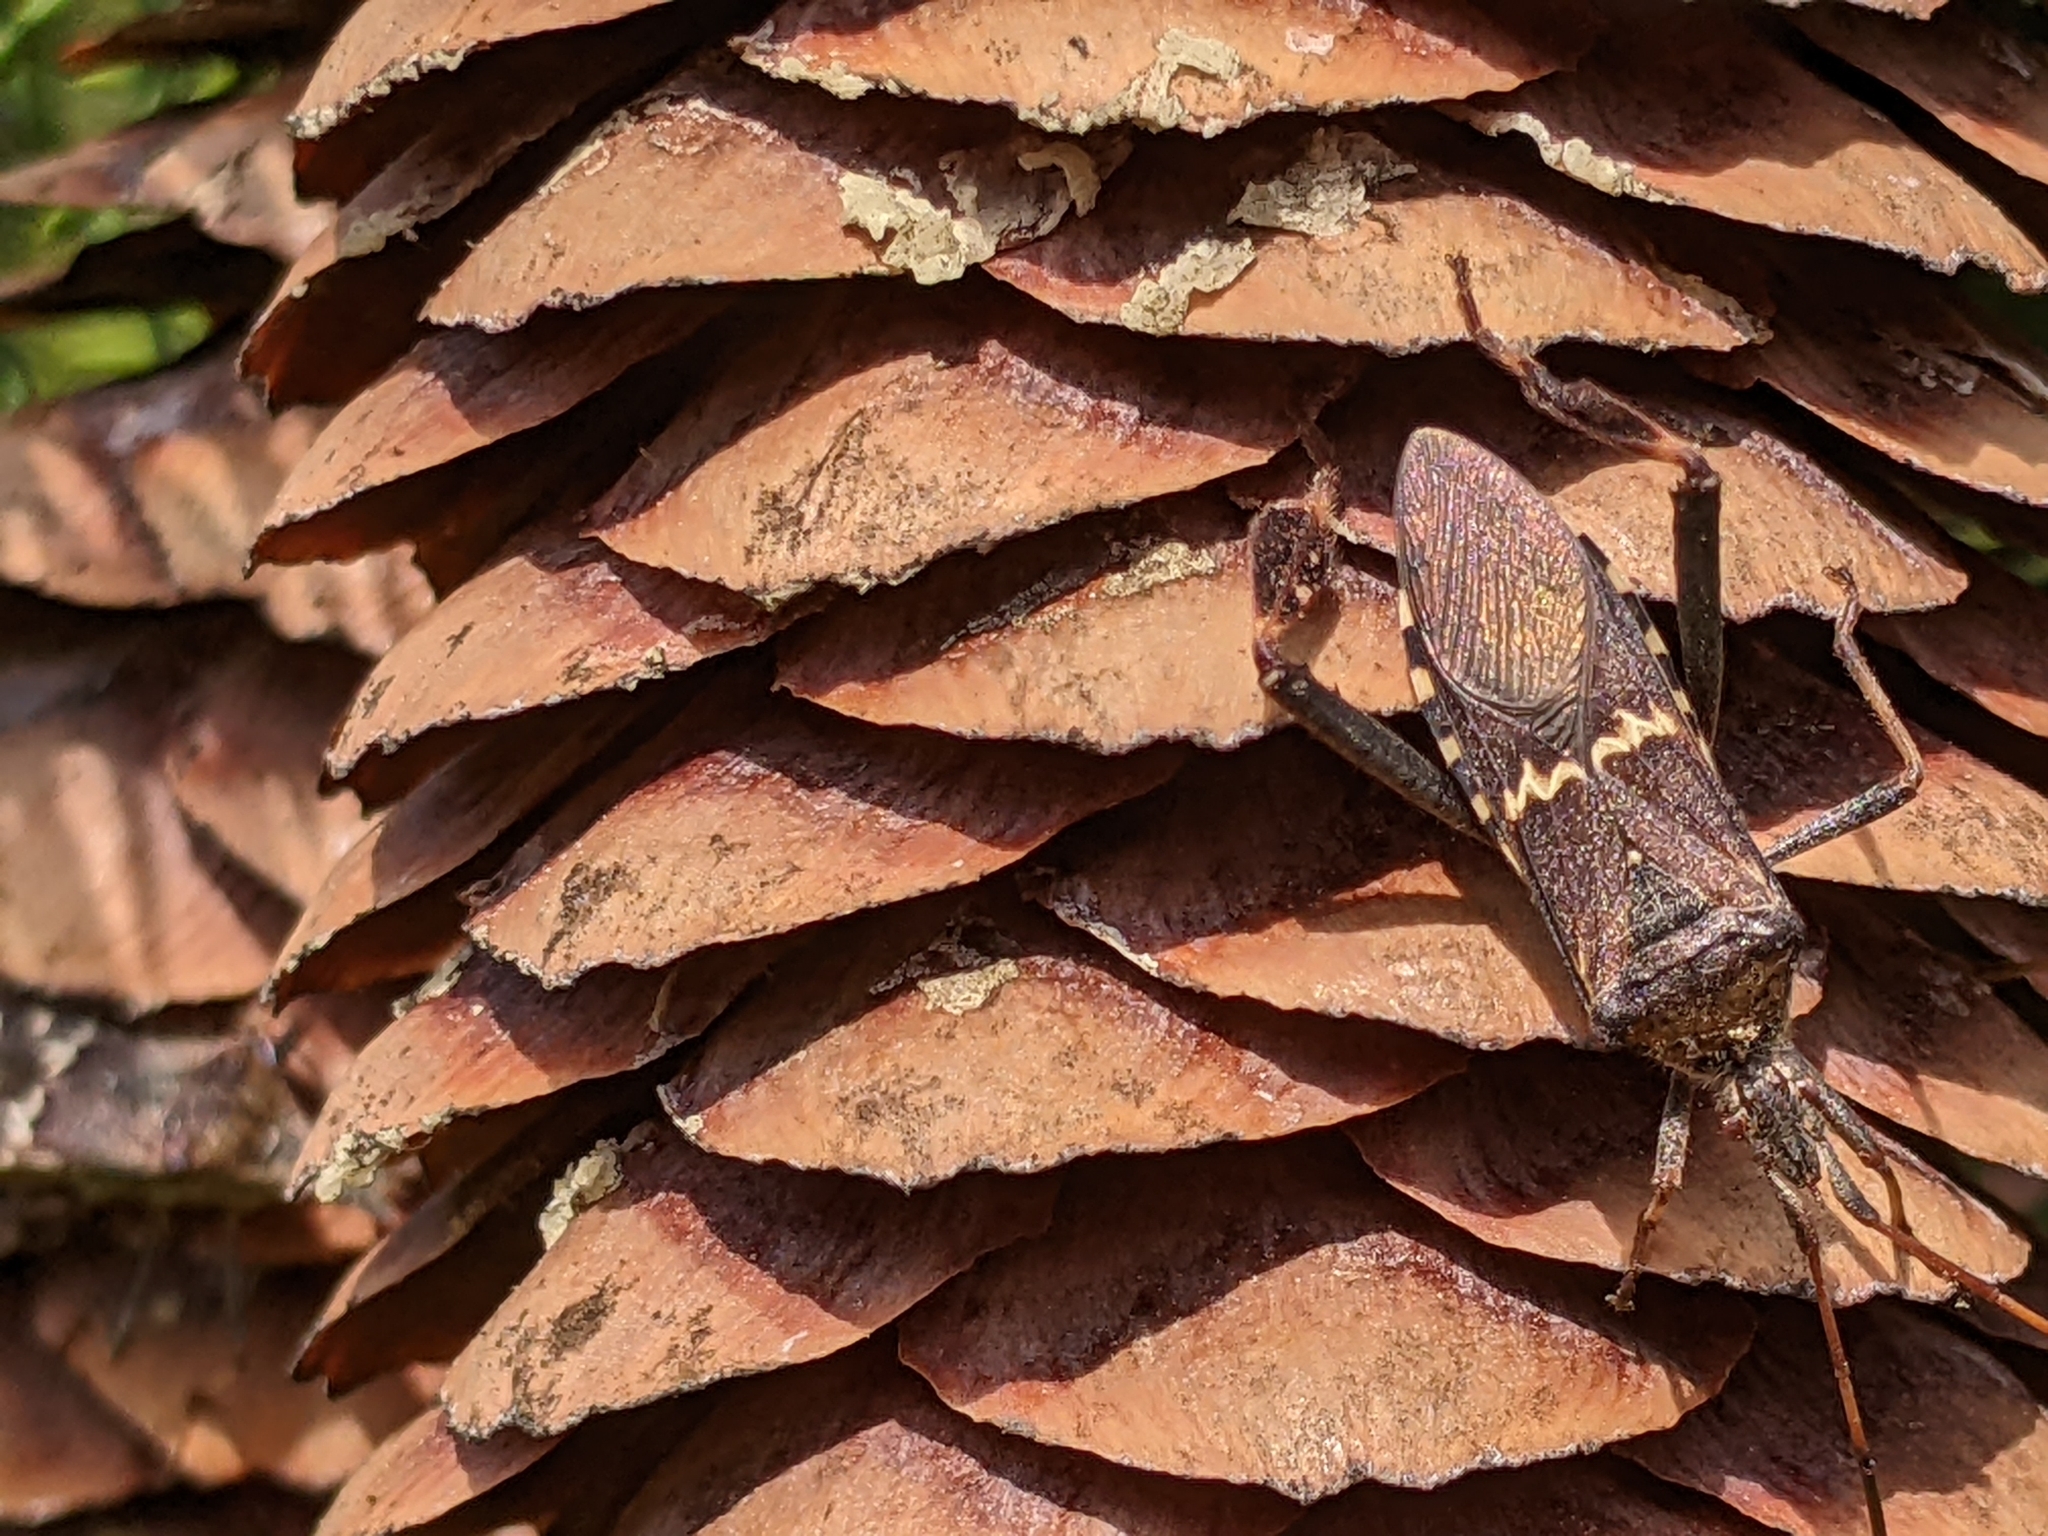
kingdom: Animalia
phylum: Arthropoda
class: Insecta
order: Hemiptera
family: Coreidae
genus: Leptoglossus
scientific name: Leptoglossus clypealis
